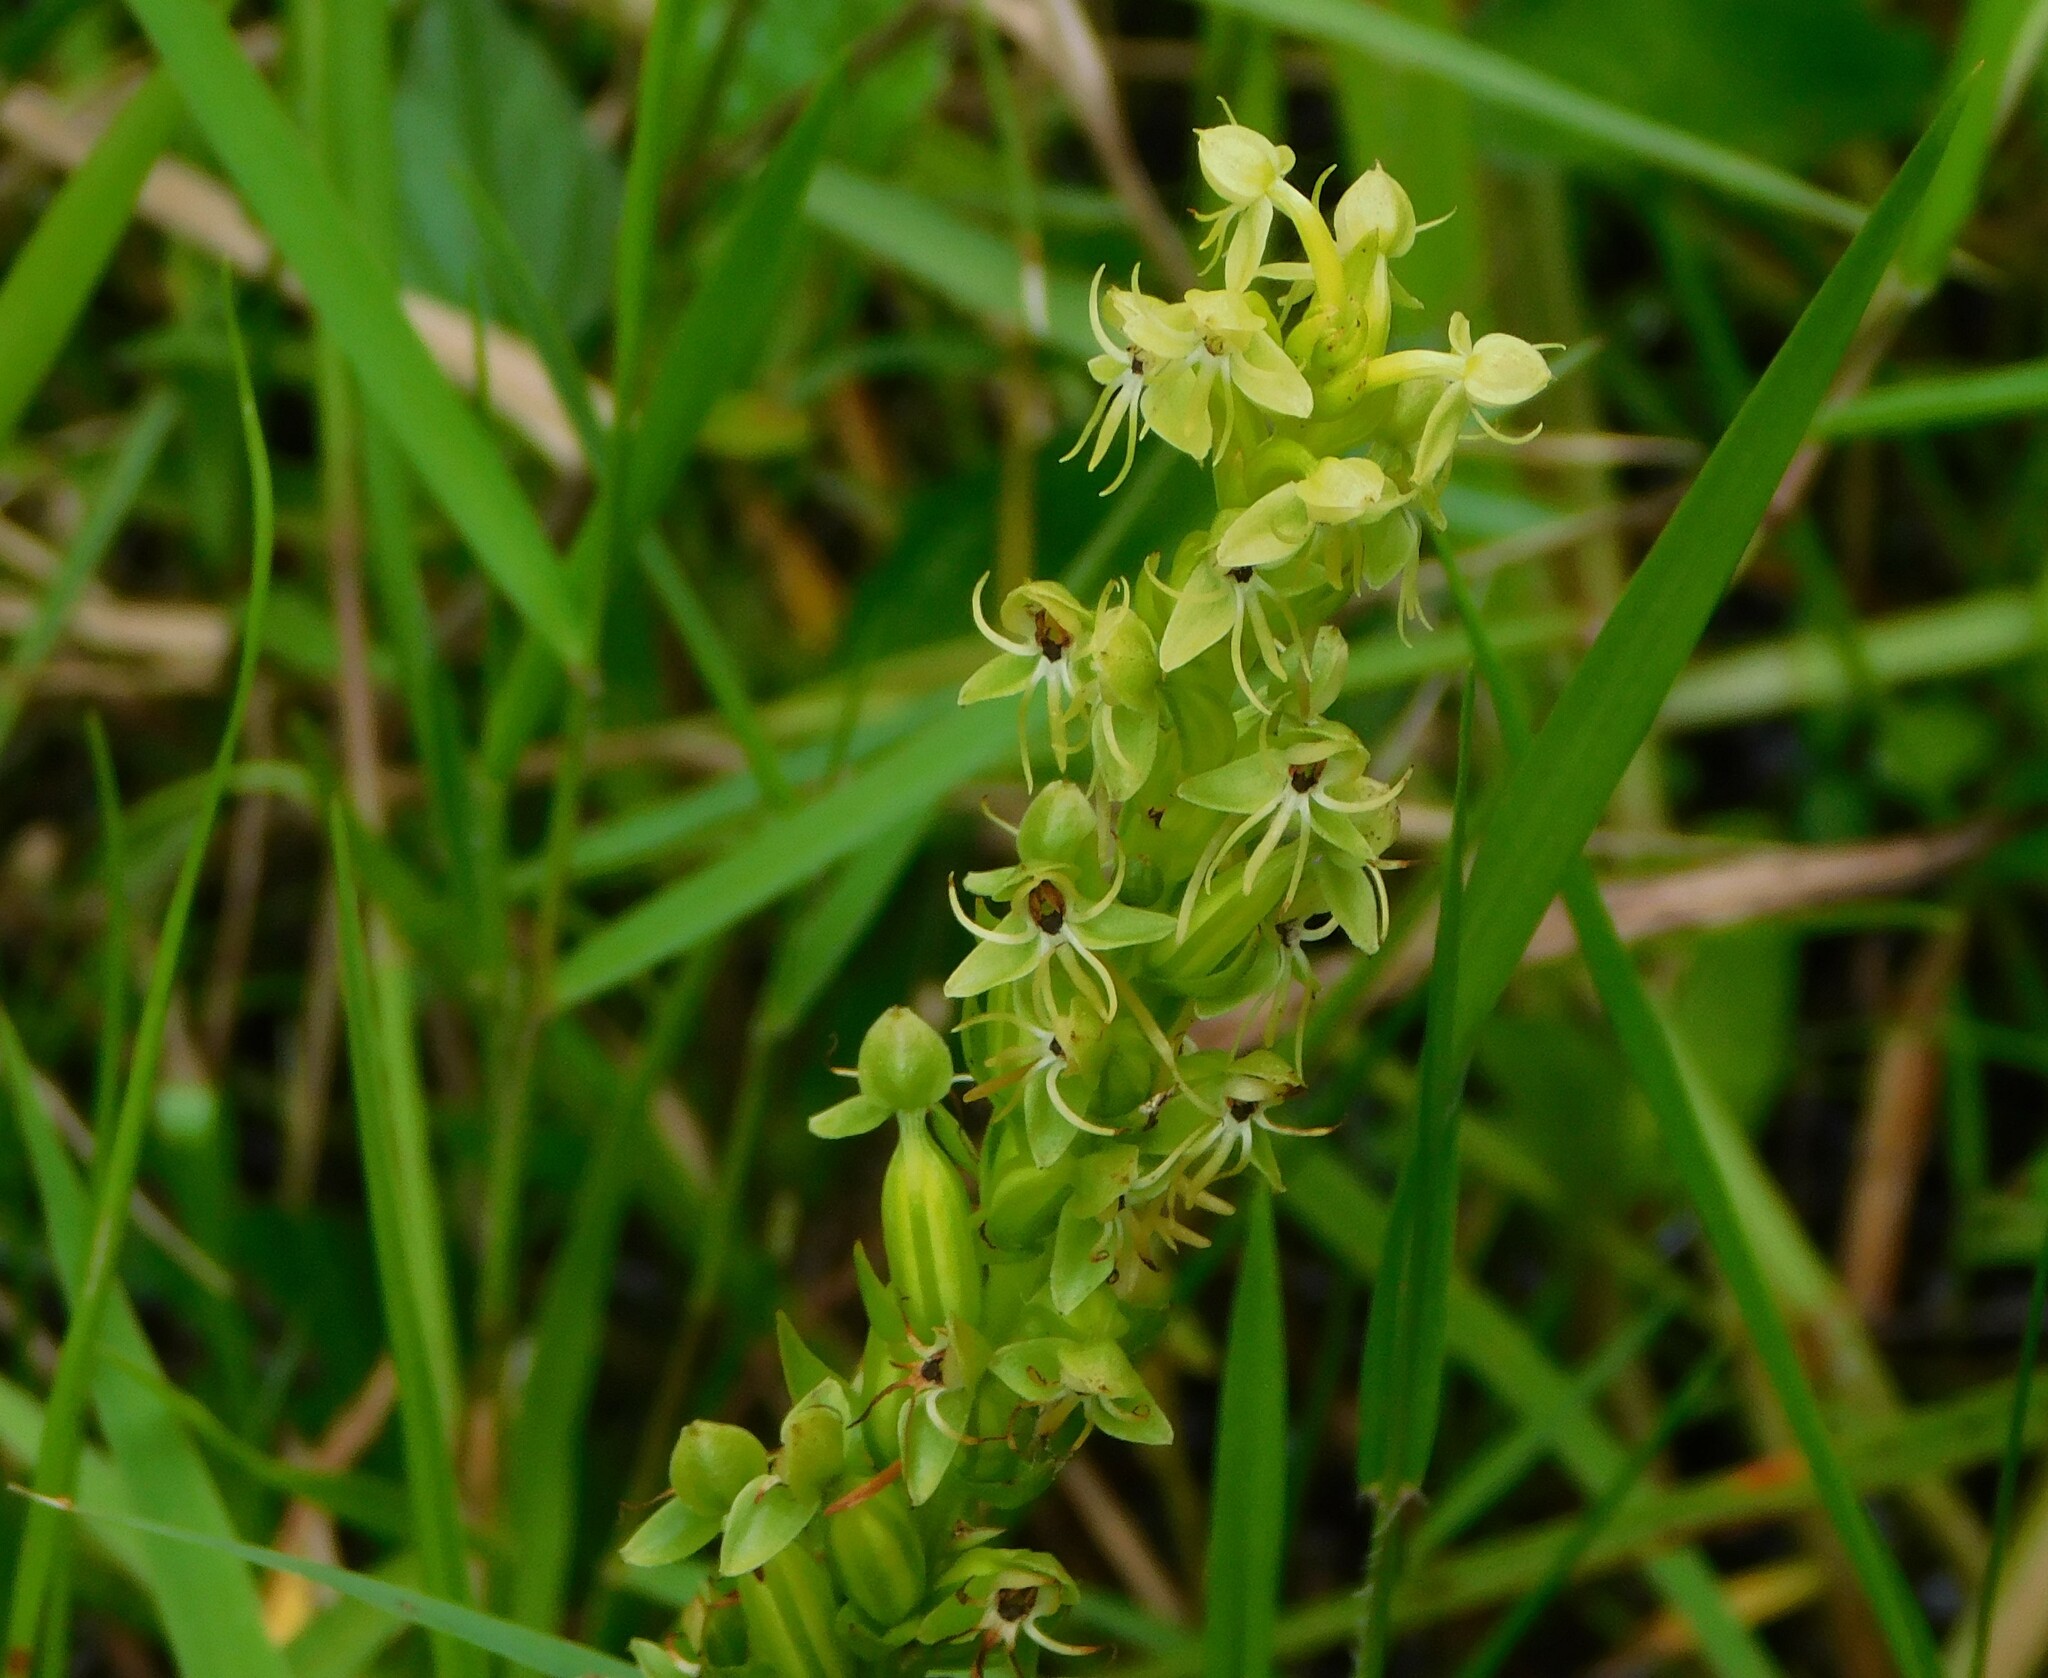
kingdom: Plantae
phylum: Tracheophyta
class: Liliopsida
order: Asparagales
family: Orchidaceae
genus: Habenaria
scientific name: Habenaria repens
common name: Water orchid
